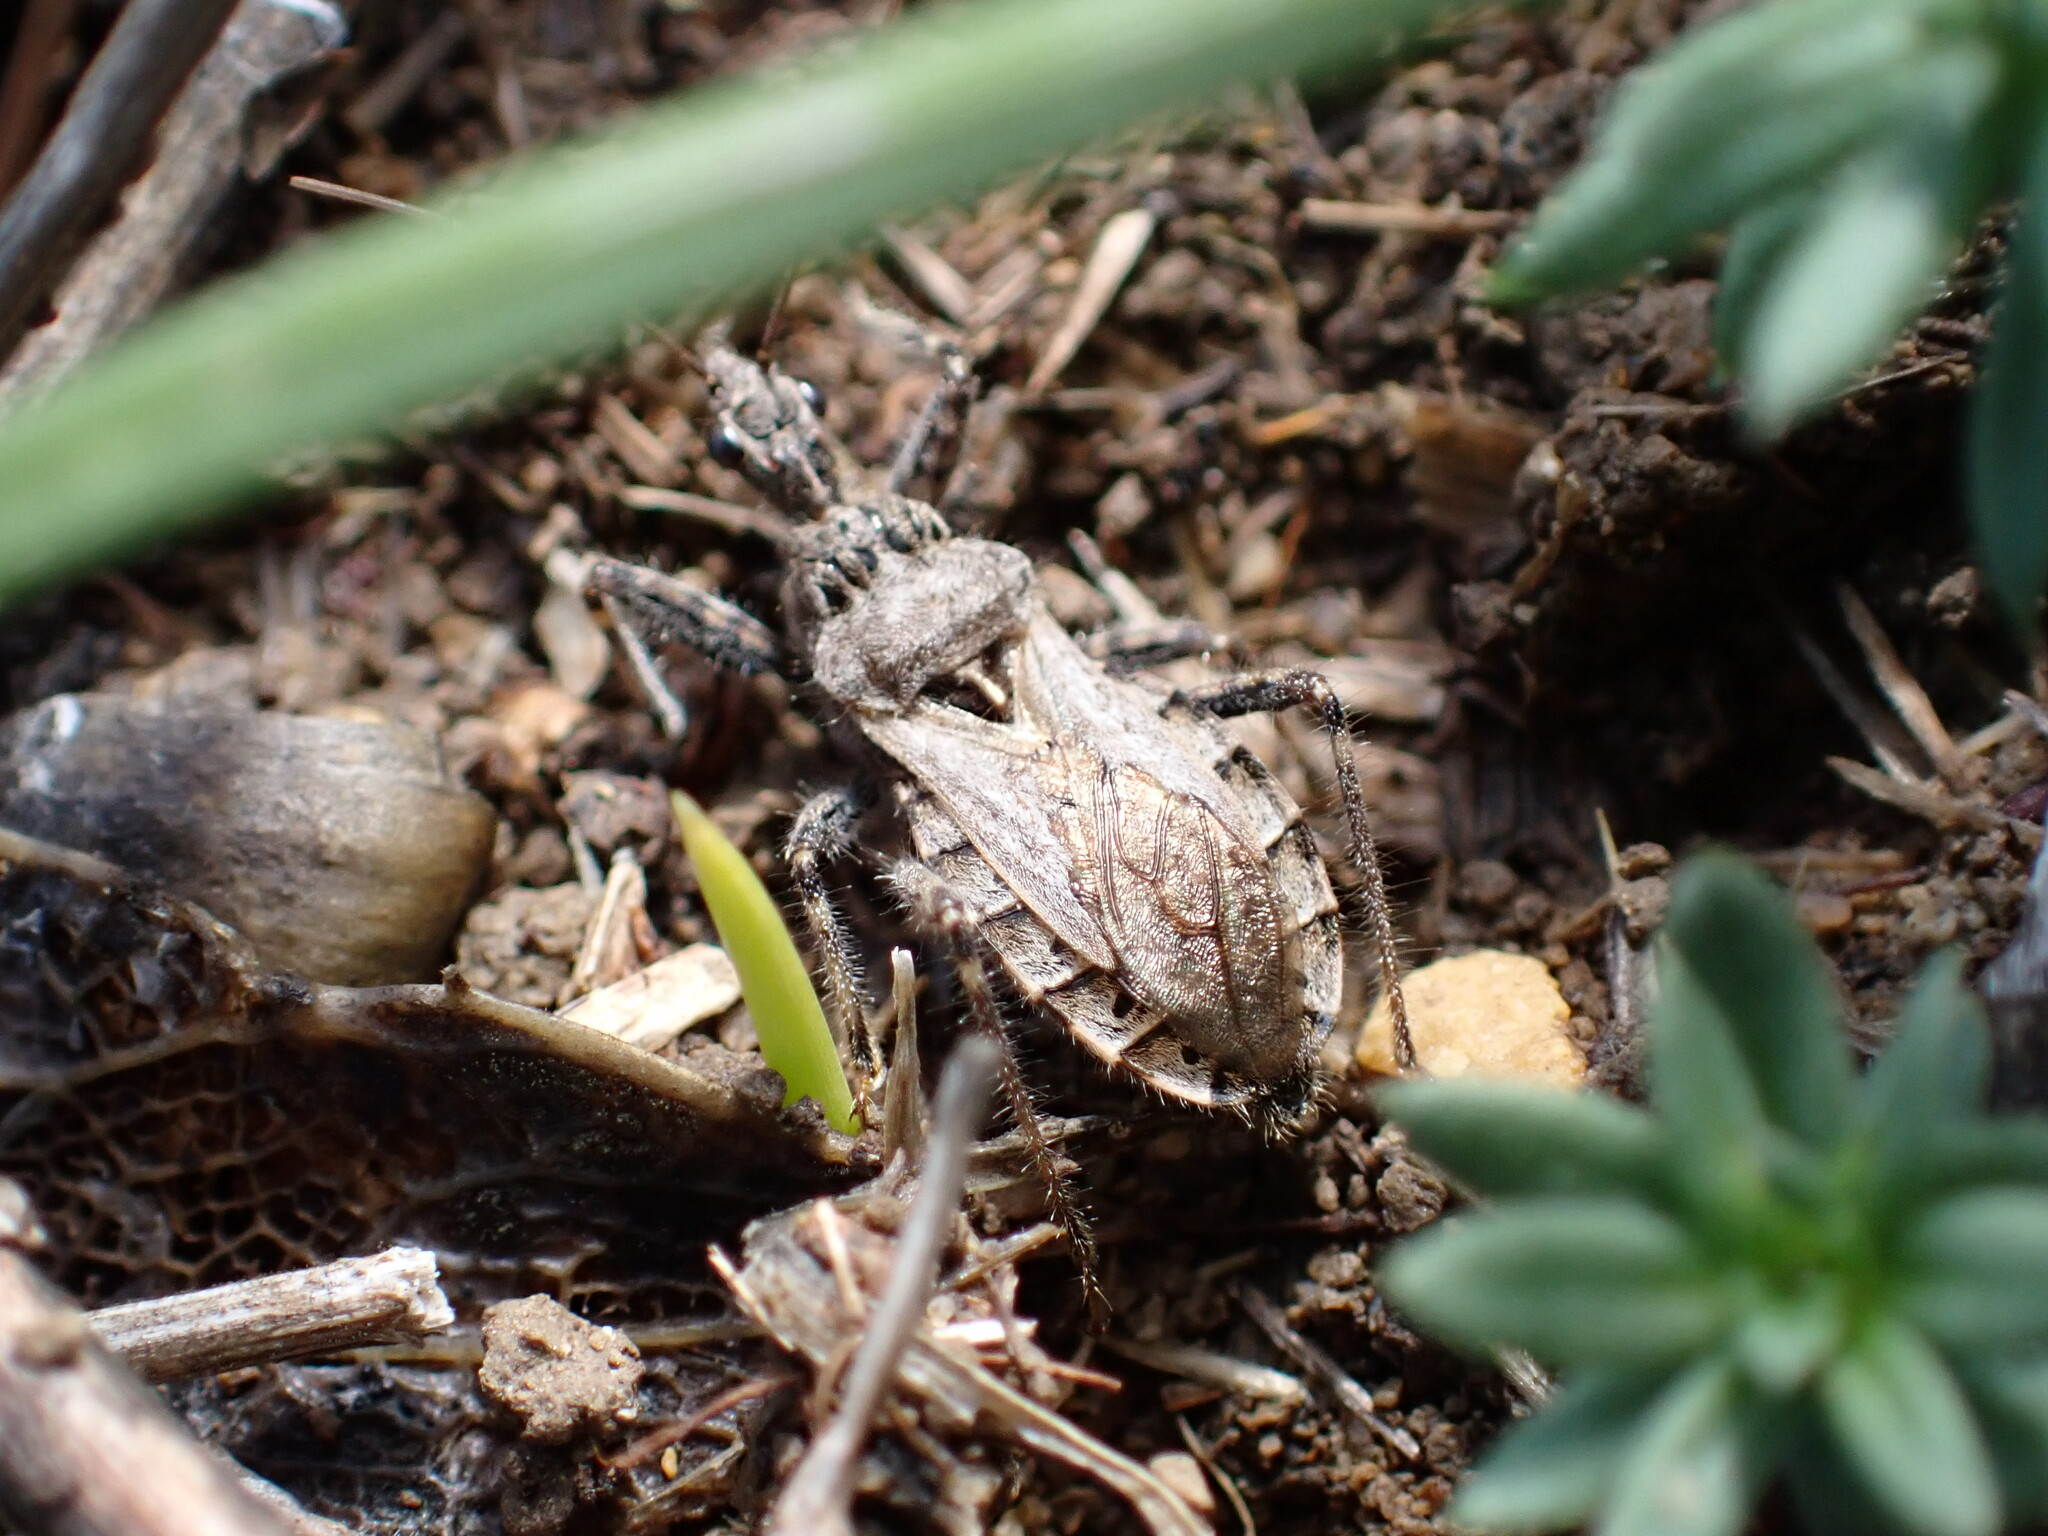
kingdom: Animalia
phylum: Arthropoda
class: Insecta
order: Hemiptera
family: Reduviidae
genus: Coranus
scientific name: Coranus kerzhneri
